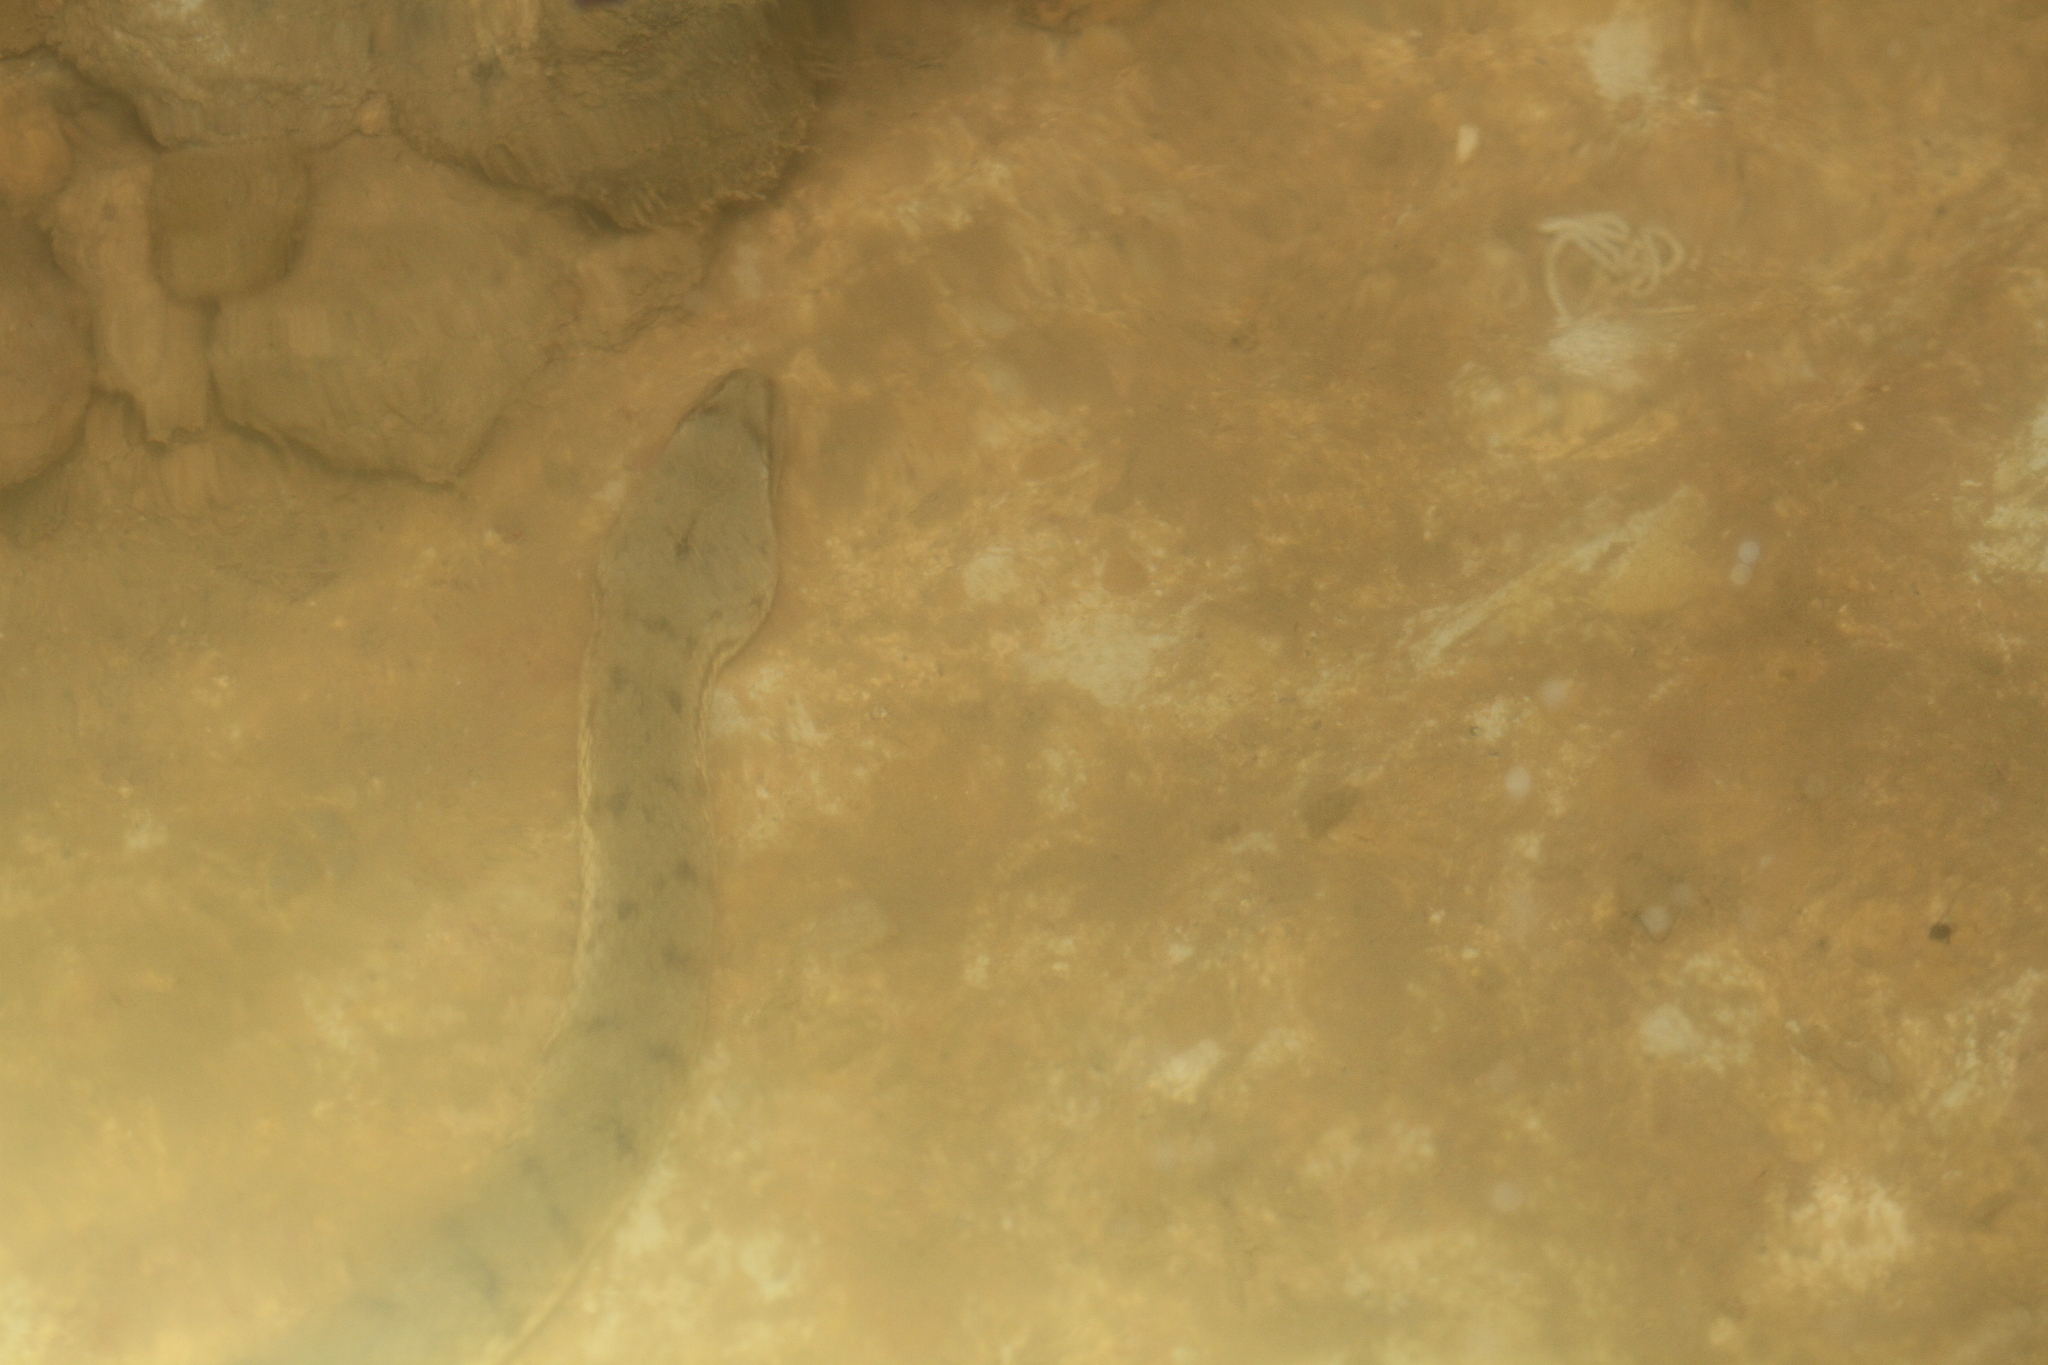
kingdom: Animalia
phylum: Chordata
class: Squamata
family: Homalopsidae
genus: Cerberus
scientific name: Cerberus schneiderii
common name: Southeast asian bockadam
